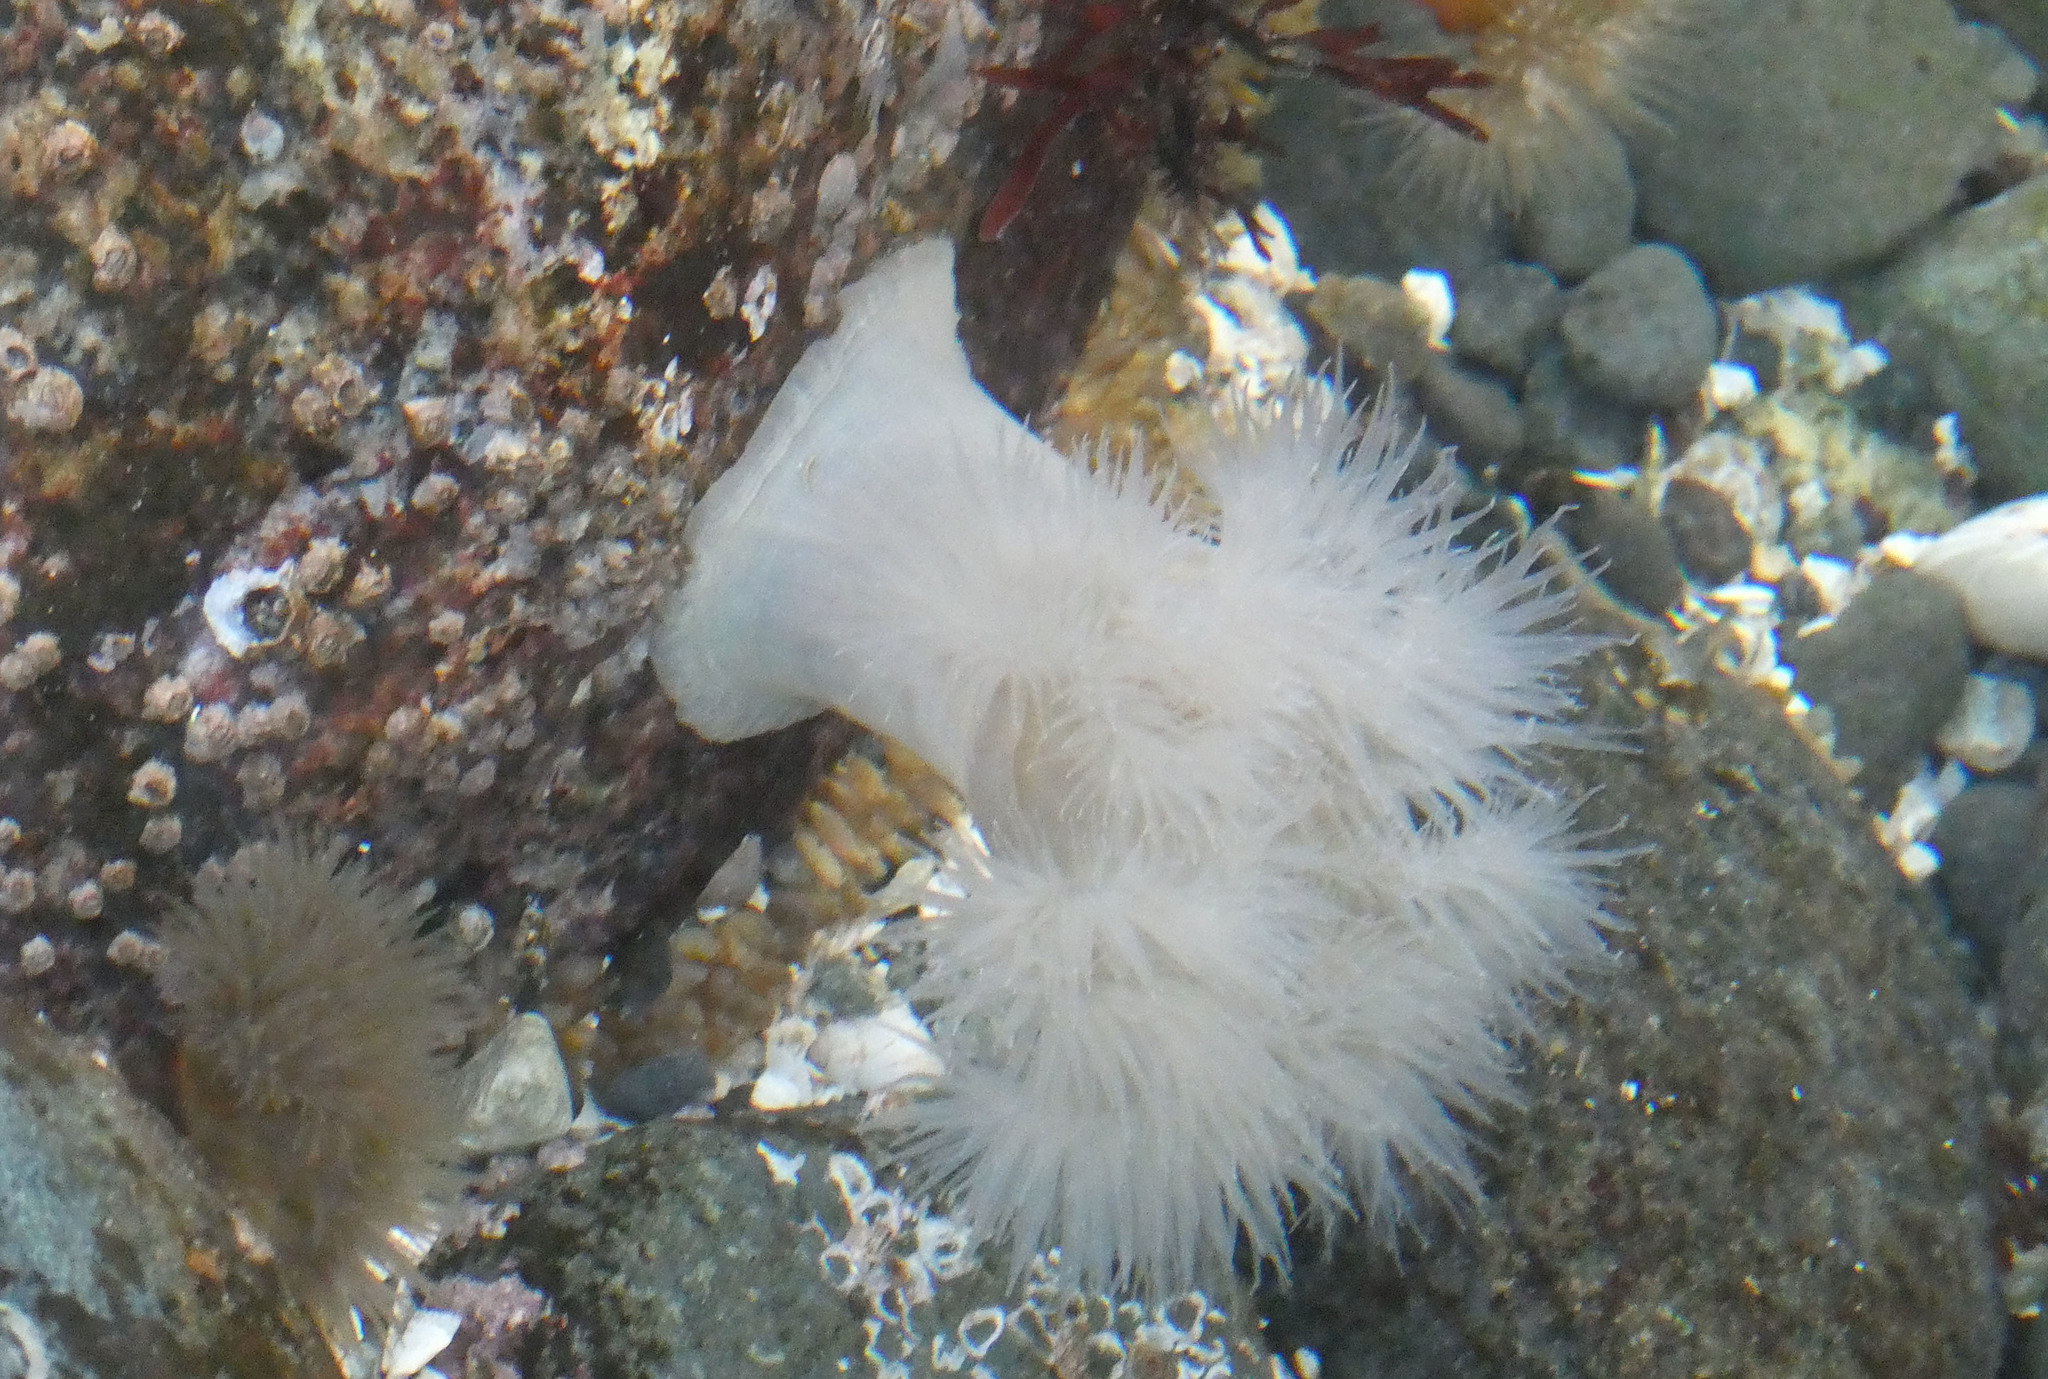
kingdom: Animalia
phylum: Cnidaria
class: Anthozoa
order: Actiniaria
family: Metridiidae
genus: Metridium
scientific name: Metridium senile
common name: Clonal plumose anemone
